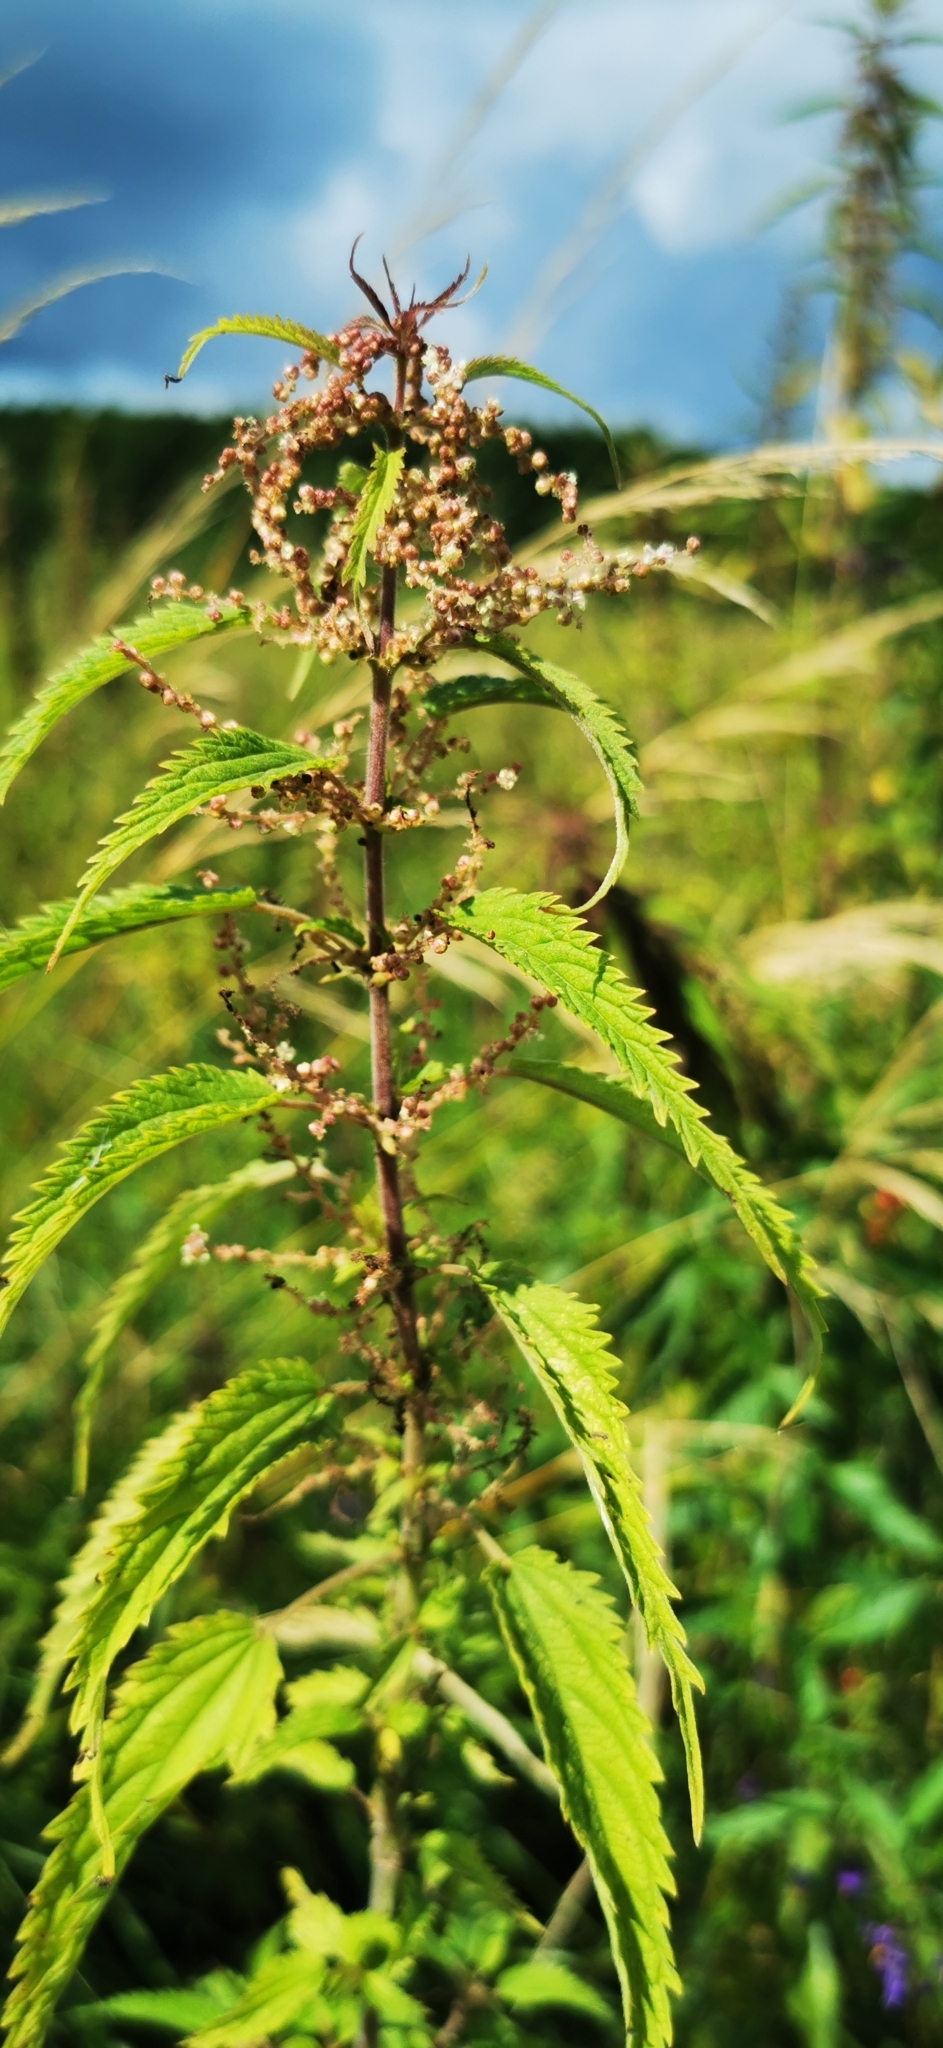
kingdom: Plantae
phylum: Tracheophyta
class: Magnoliopsida
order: Rosales
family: Urticaceae
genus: Urtica
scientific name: Urtica dioica
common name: Common nettle
